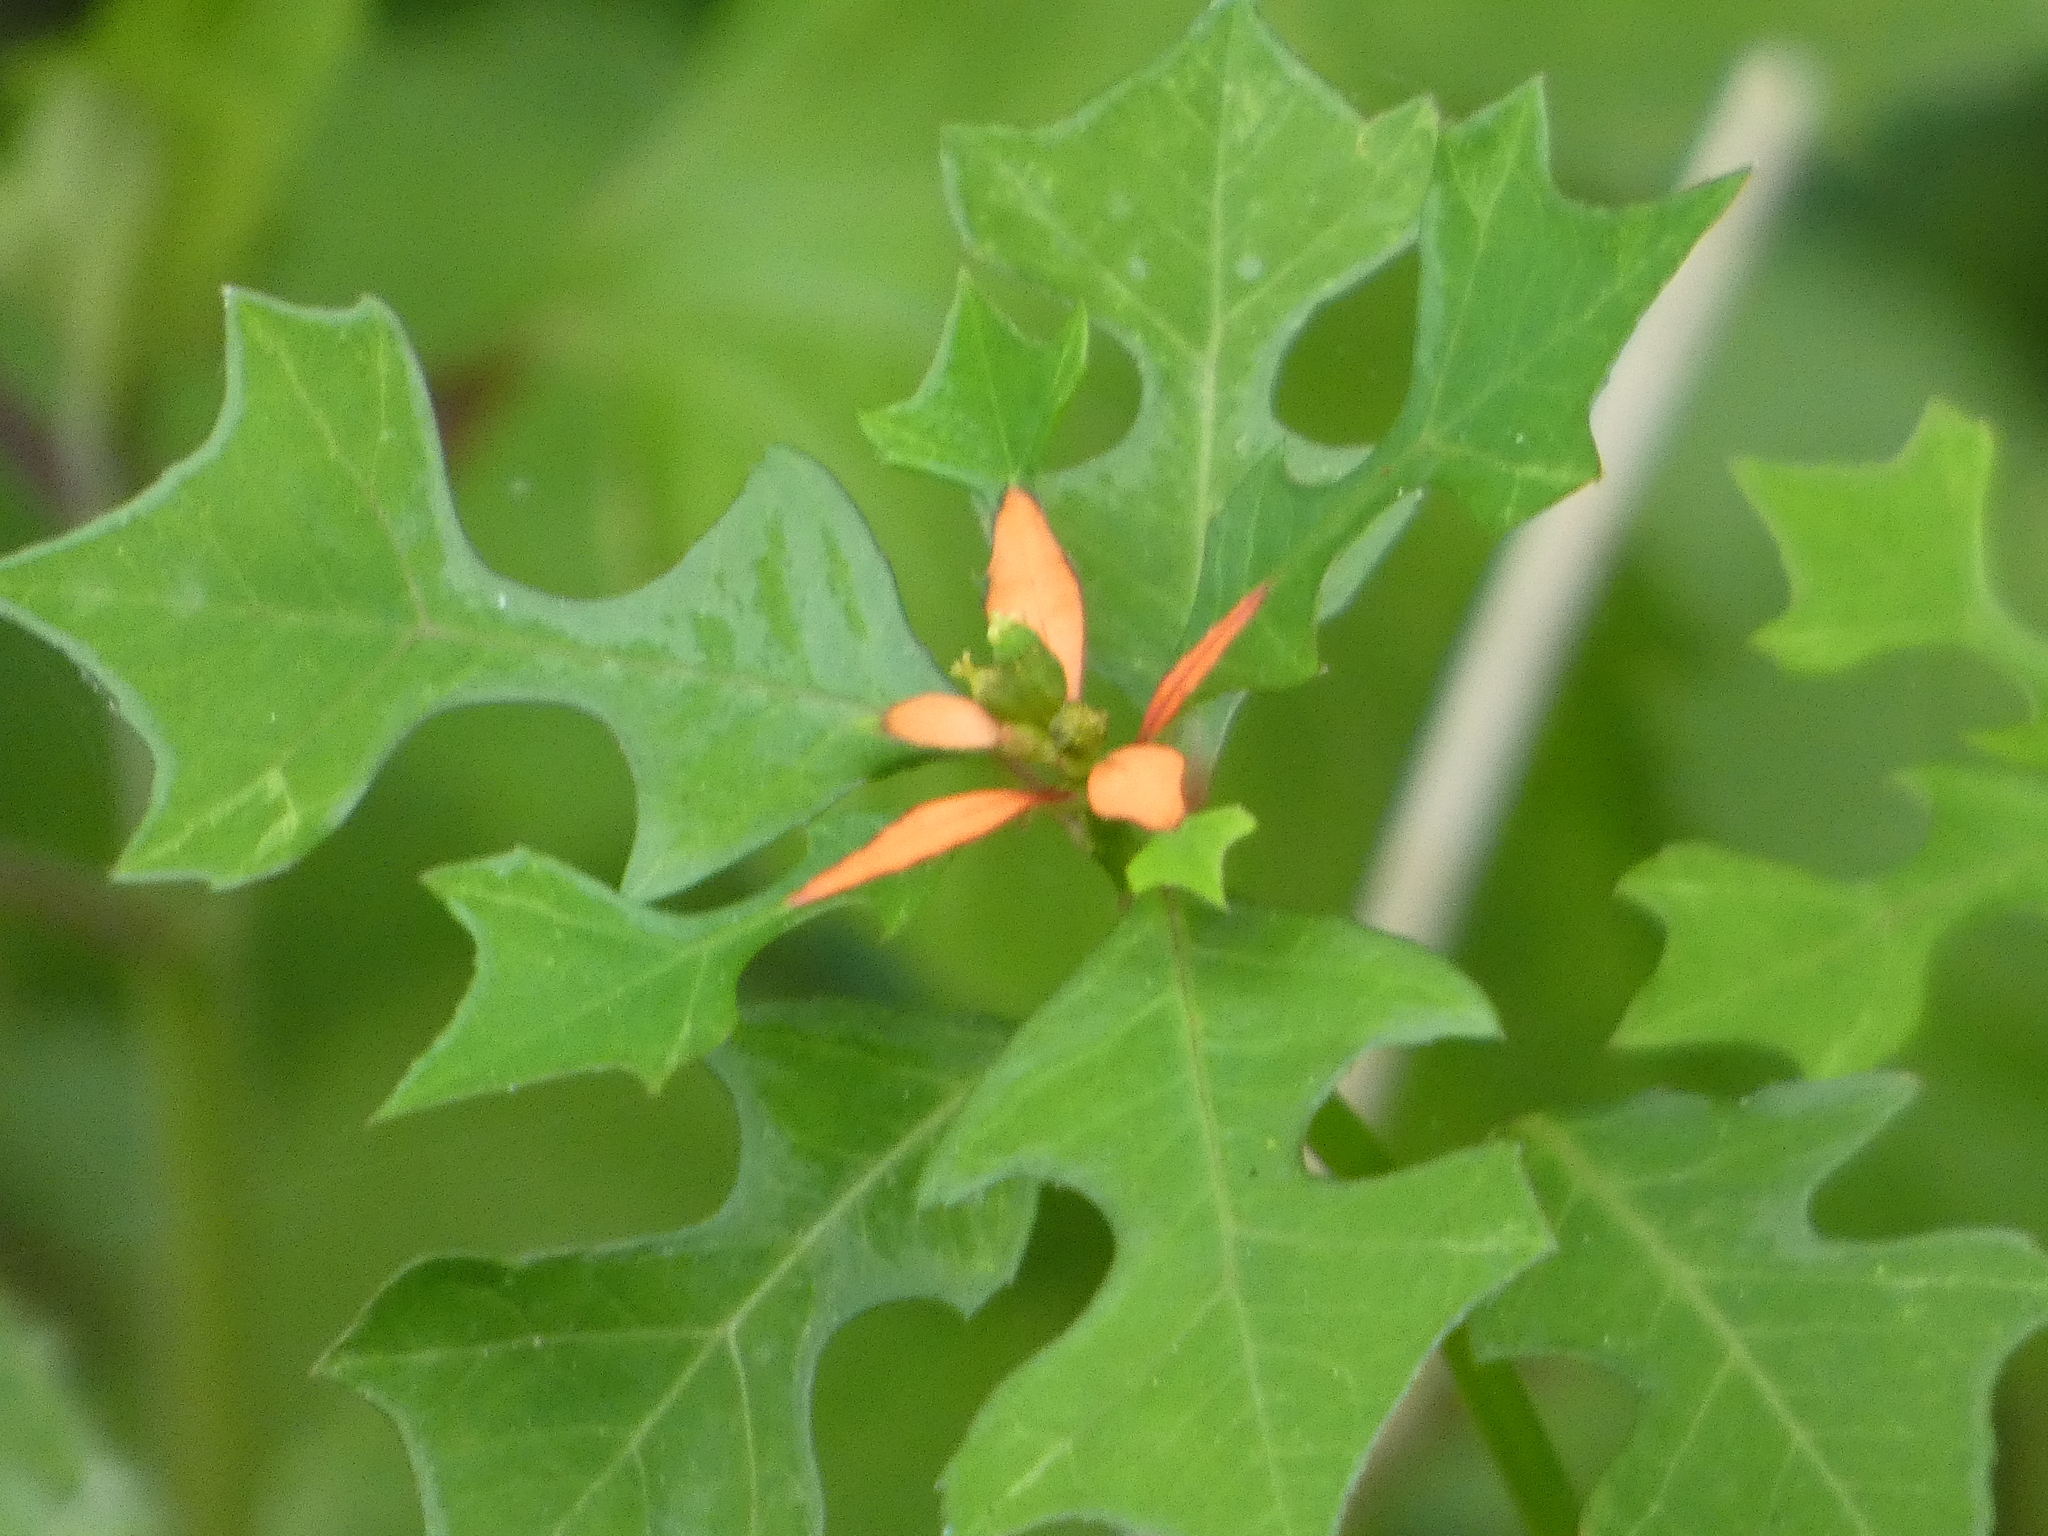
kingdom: Plantae
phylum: Tracheophyta
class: Magnoliopsida
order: Malpighiales
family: Euphorbiaceae
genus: Euphorbia
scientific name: Euphorbia heterophylla
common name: Mexican fireplant
